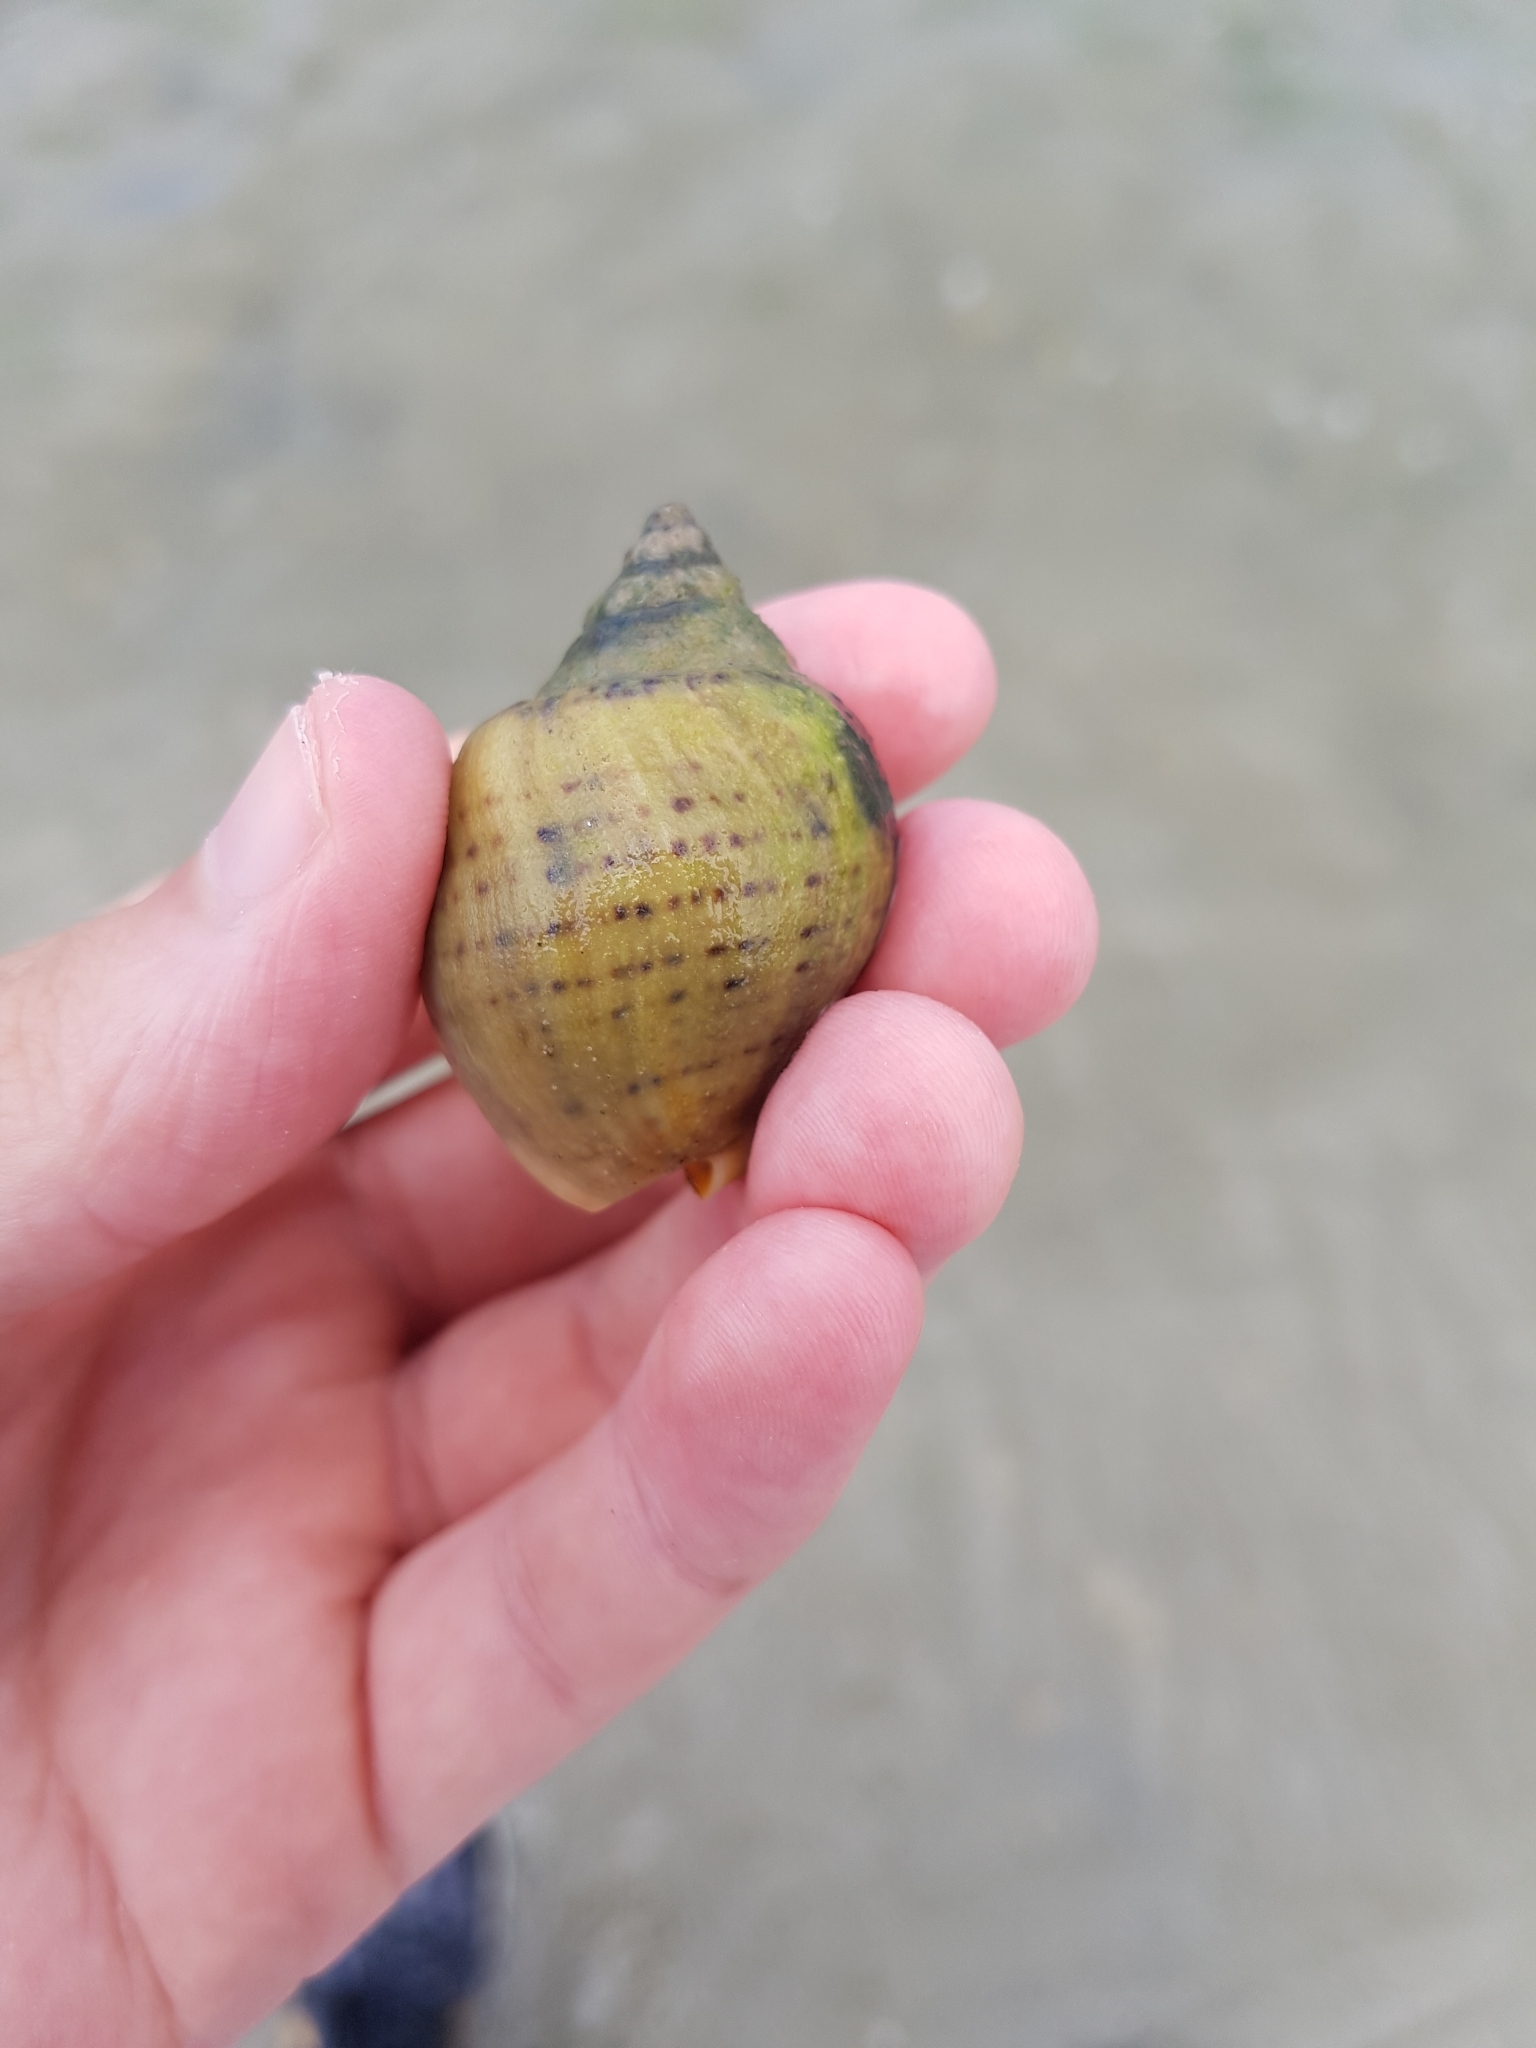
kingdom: Animalia
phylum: Mollusca
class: Gastropoda
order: Neogastropoda
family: Cominellidae
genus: Cominella
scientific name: Cominella adspersa
